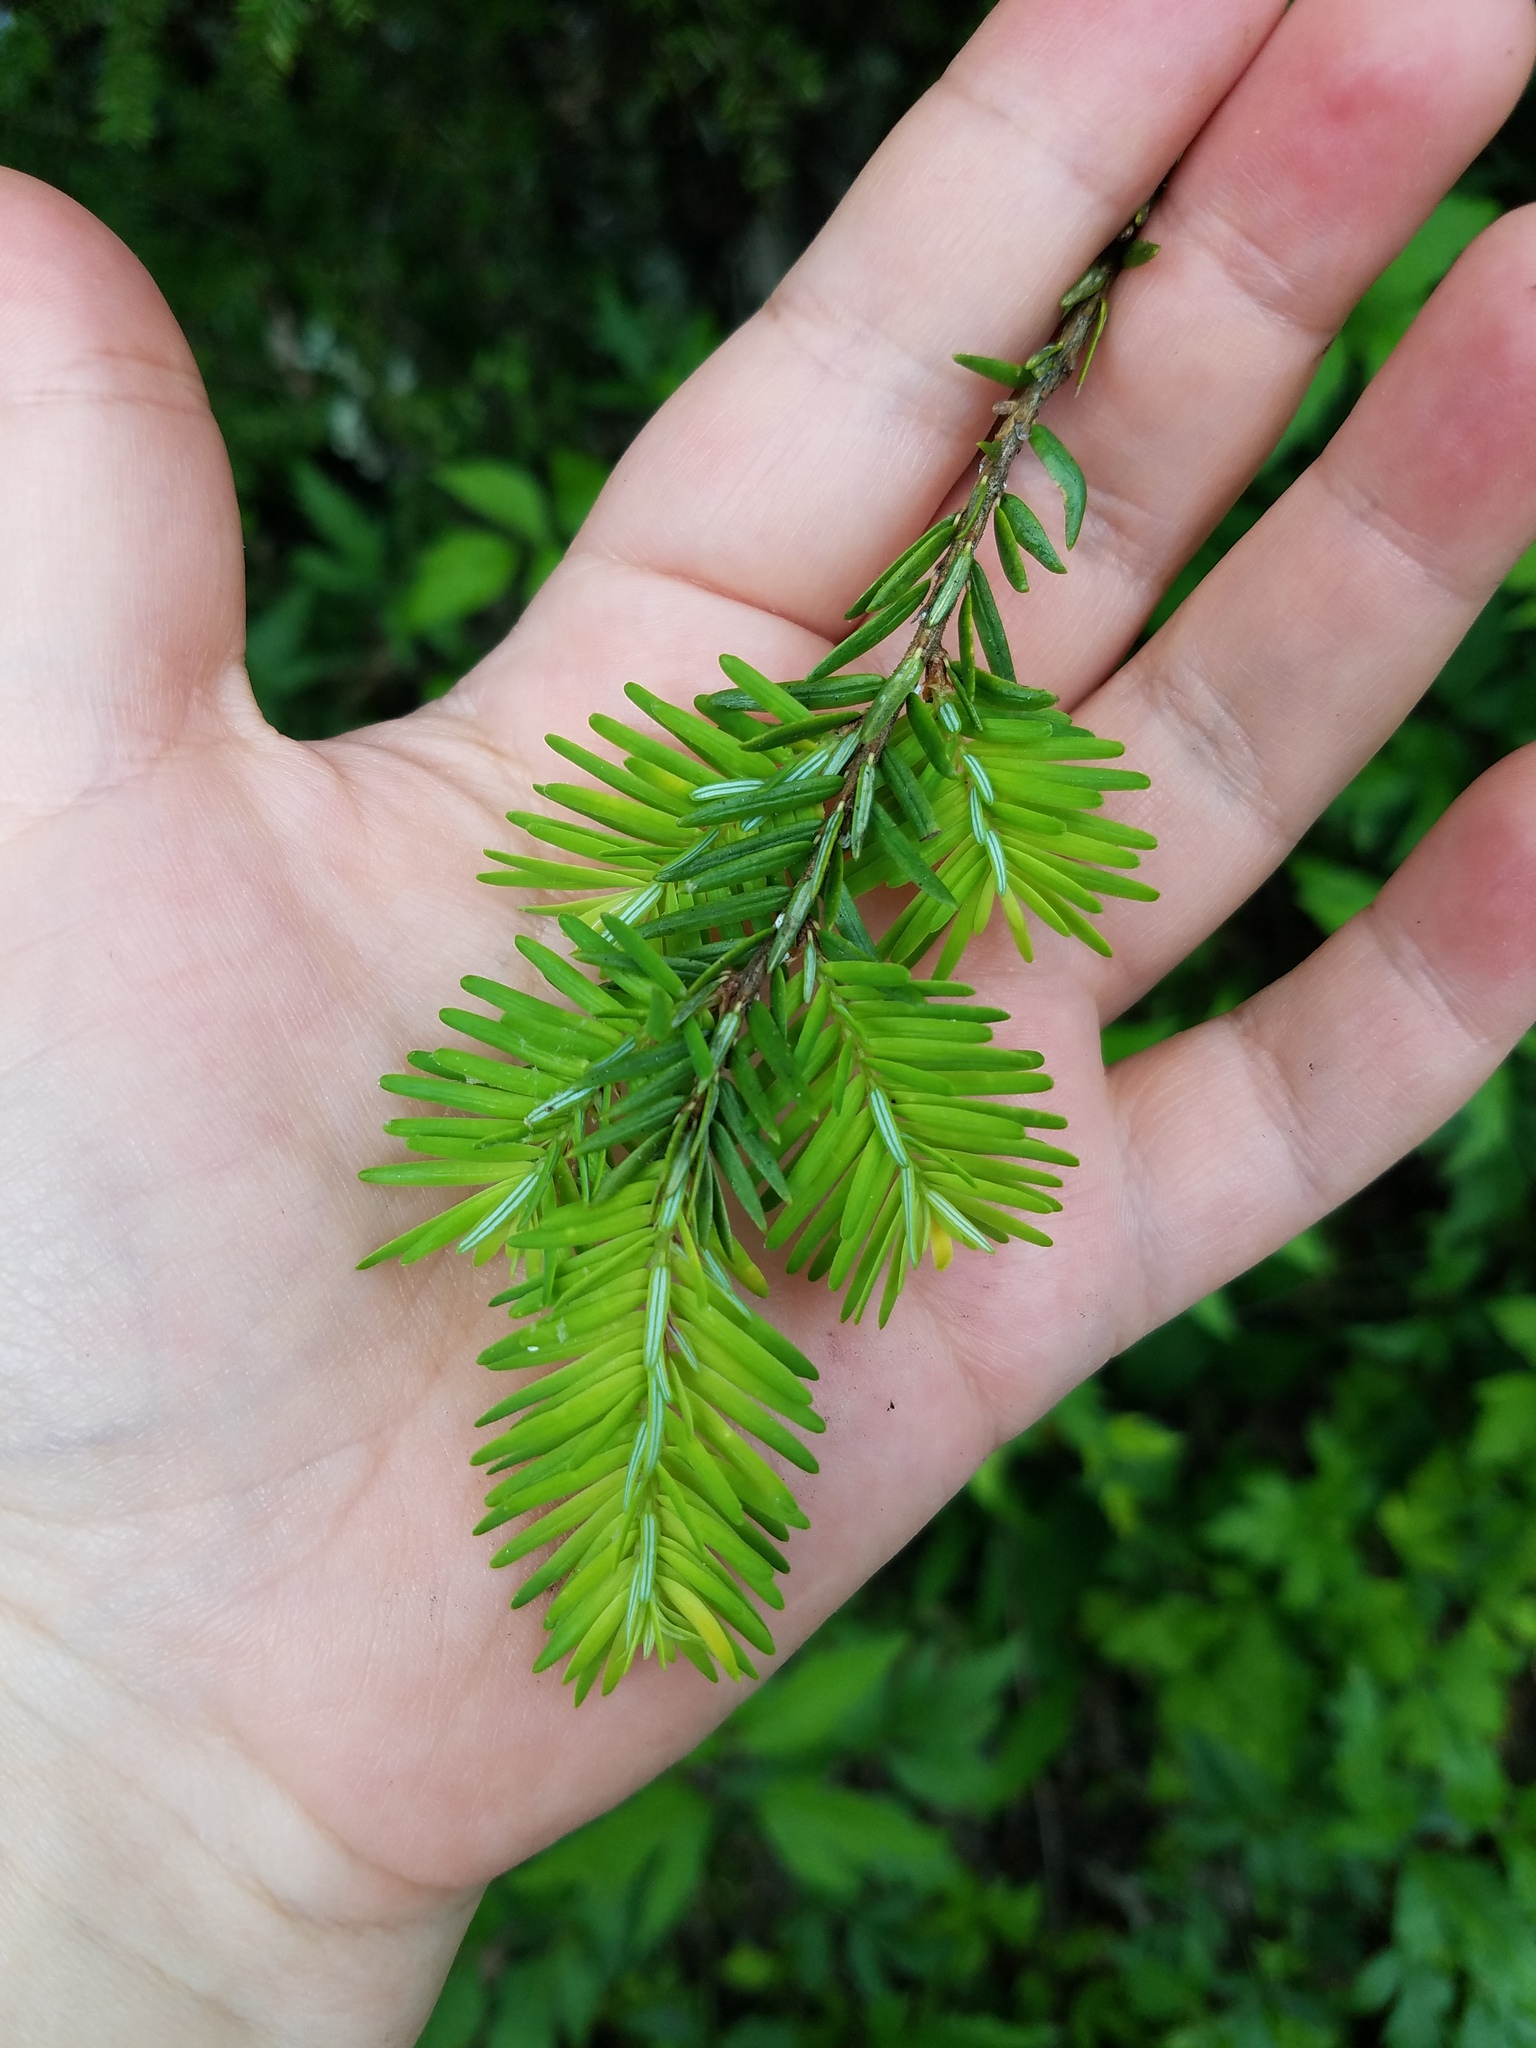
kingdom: Plantae
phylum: Tracheophyta
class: Pinopsida
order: Pinales
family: Pinaceae
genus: Tsuga
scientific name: Tsuga canadensis
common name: Eastern hemlock
